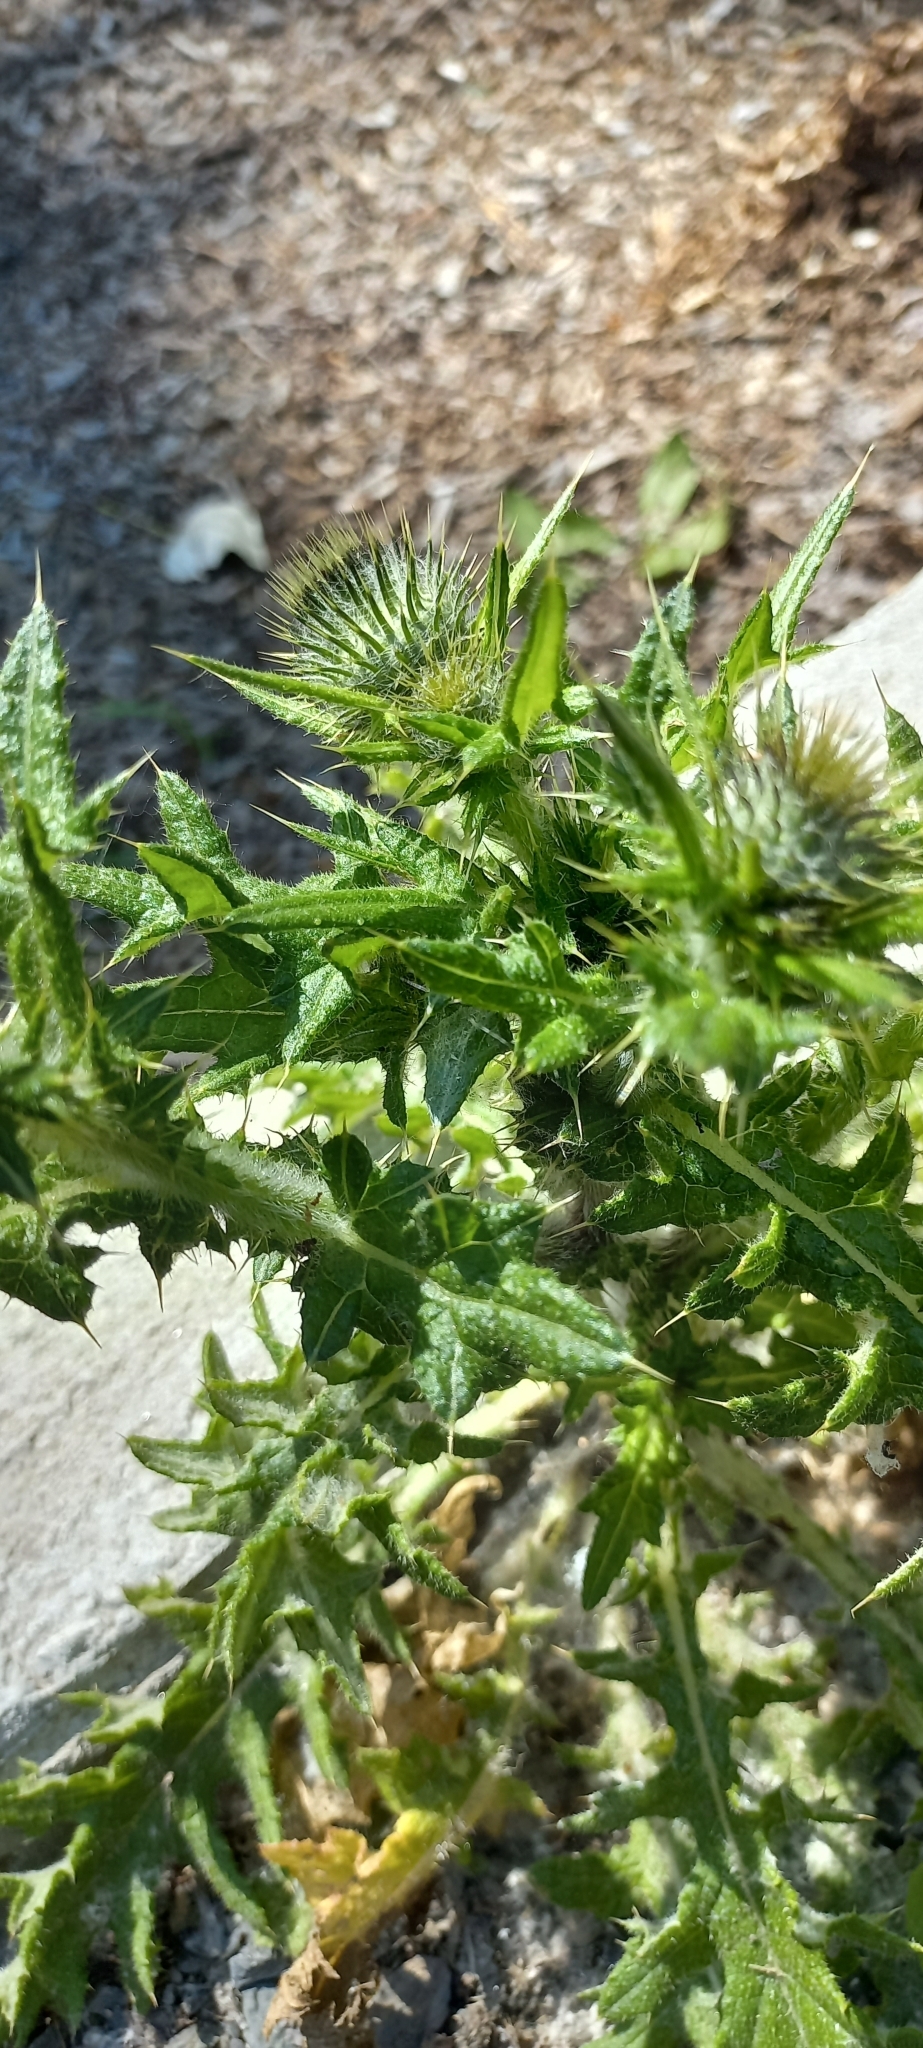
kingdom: Plantae
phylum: Tracheophyta
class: Magnoliopsida
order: Asterales
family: Asteraceae
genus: Cirsium
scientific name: Cirsium vulgare
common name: Bull thistle
